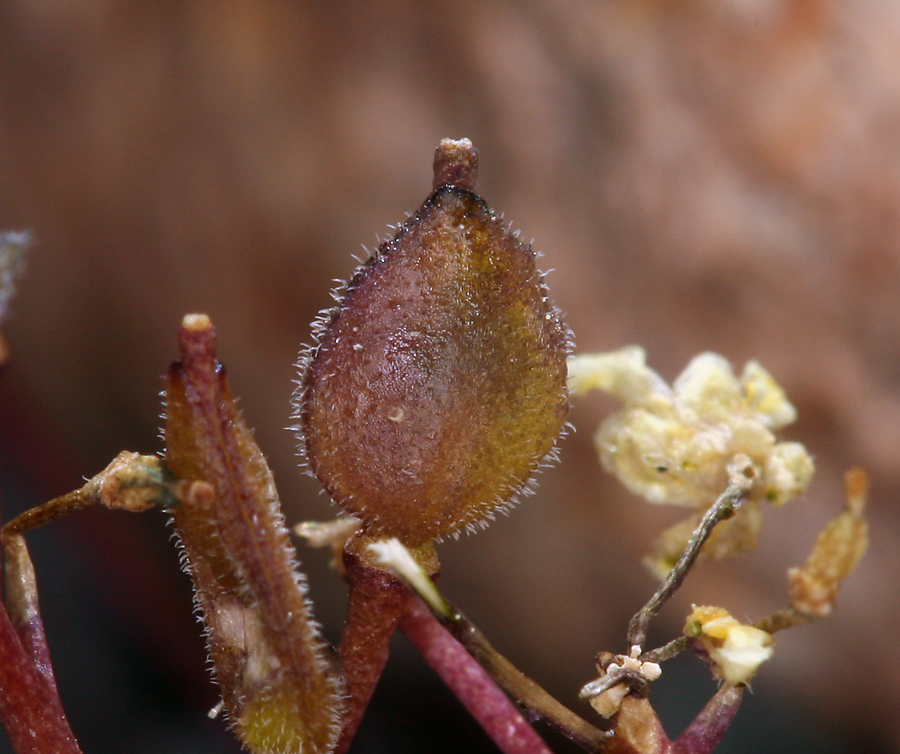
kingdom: Plantae
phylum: Tracheophyta
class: Magnoliopsida
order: Brassicales
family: Brassicaceae
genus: Draba
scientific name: Draba incrassata
